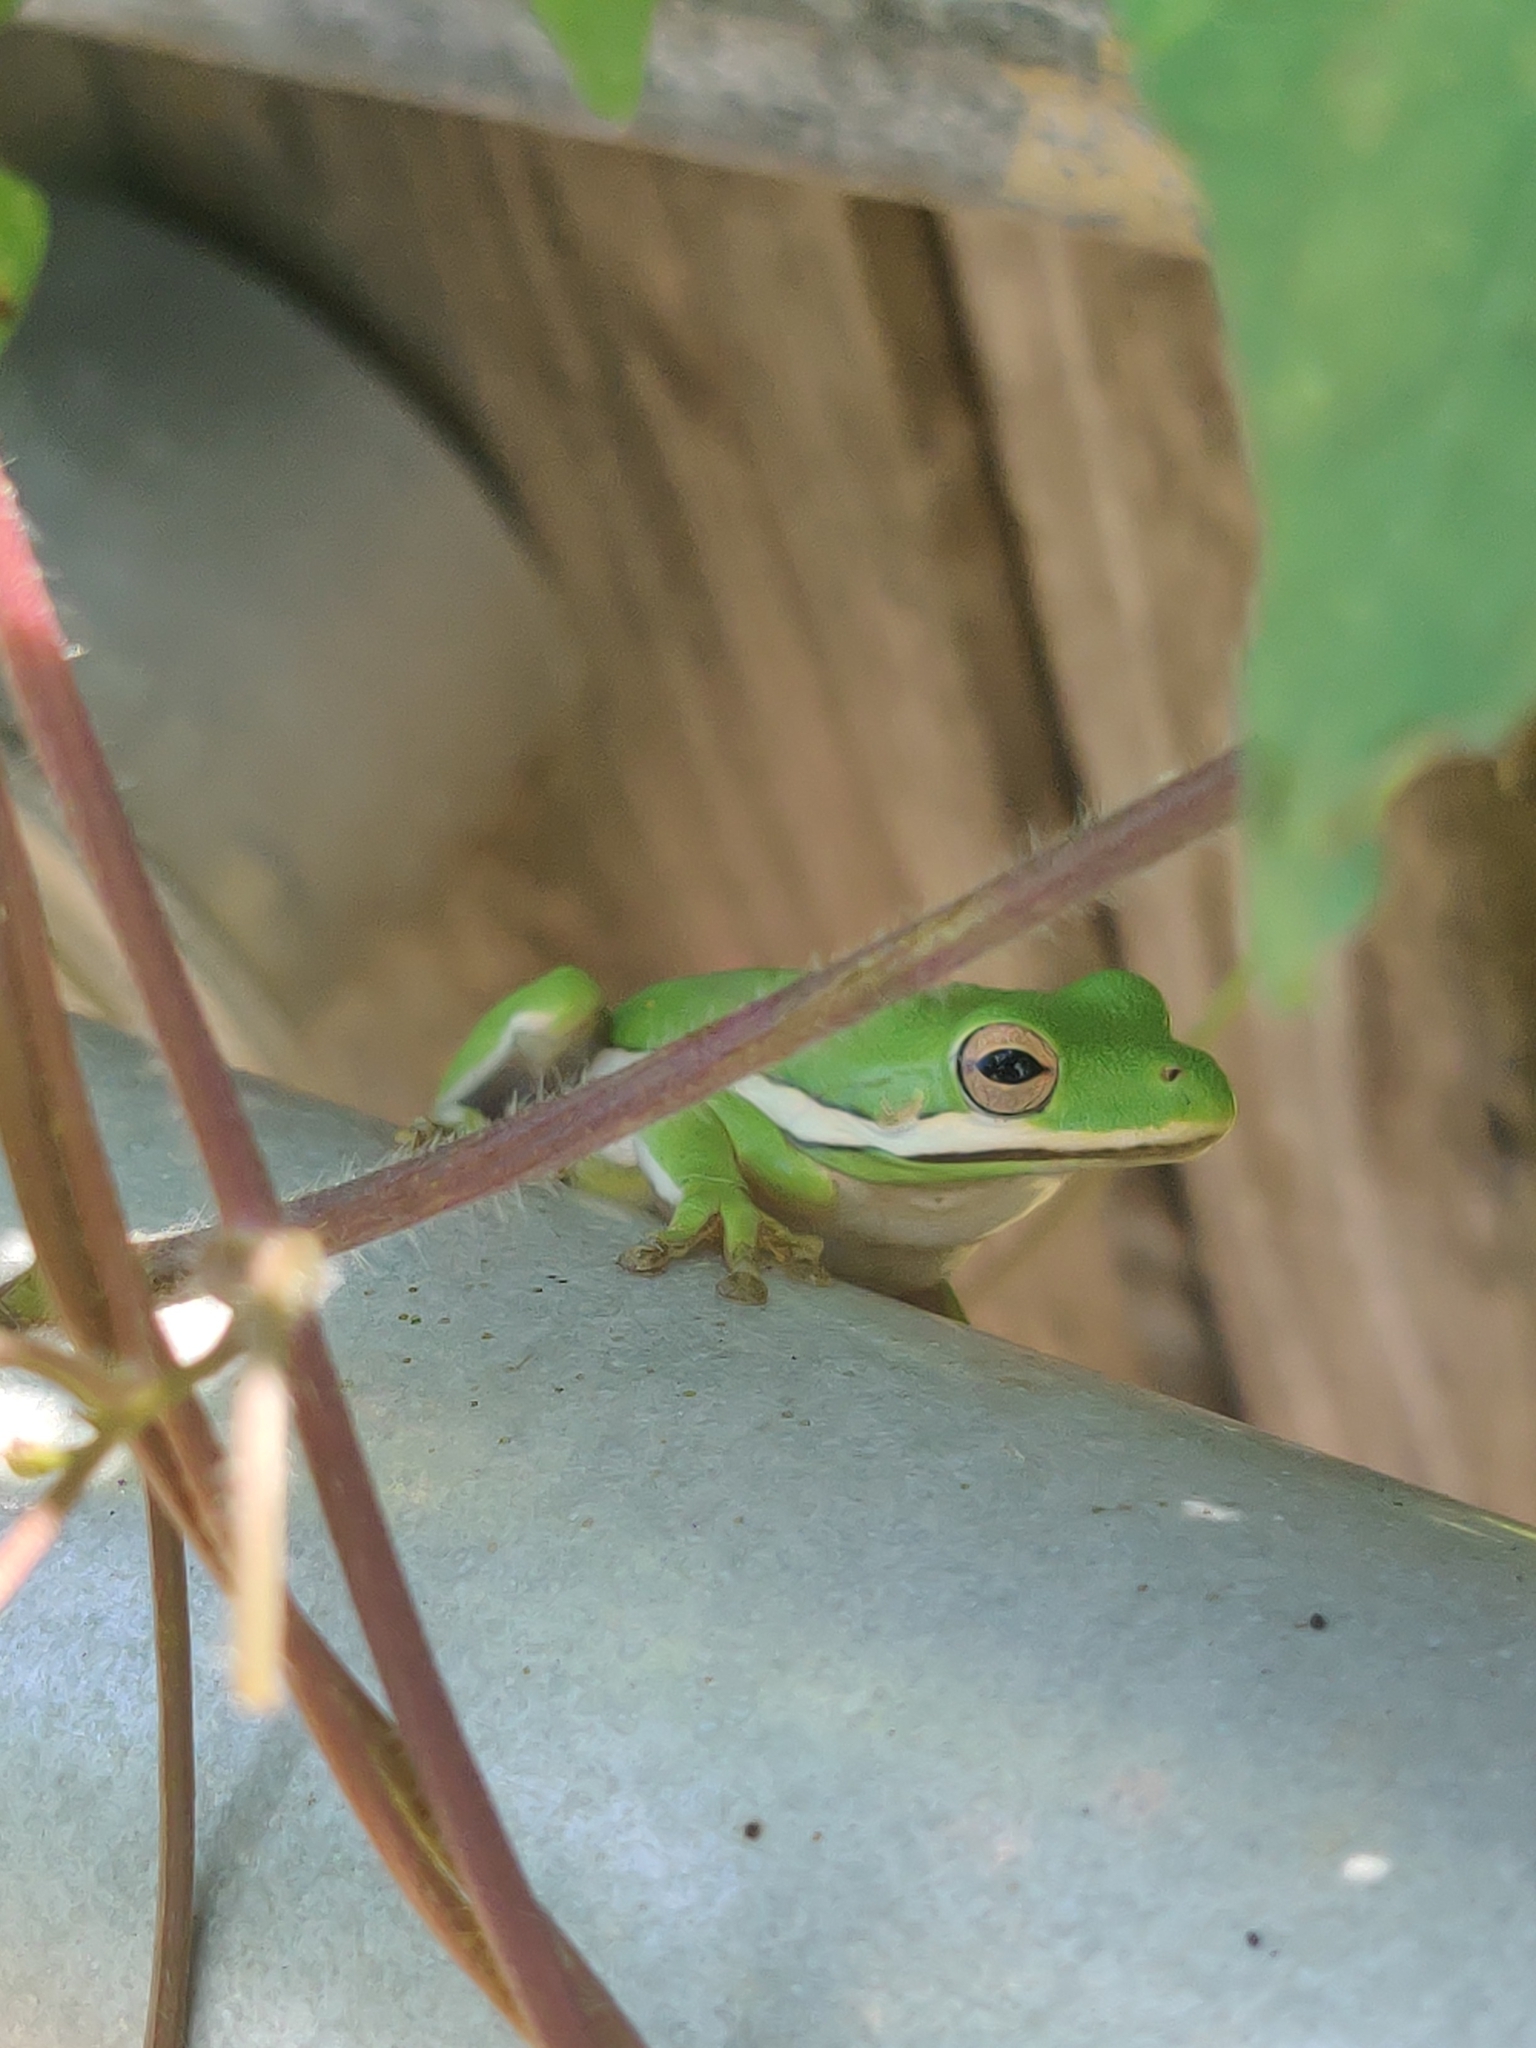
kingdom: Animalia
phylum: Chordata
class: Amphibia
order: Anura
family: Hylidae
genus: Dryophytes
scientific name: Dryophytes cinereus
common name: Green treefrog
